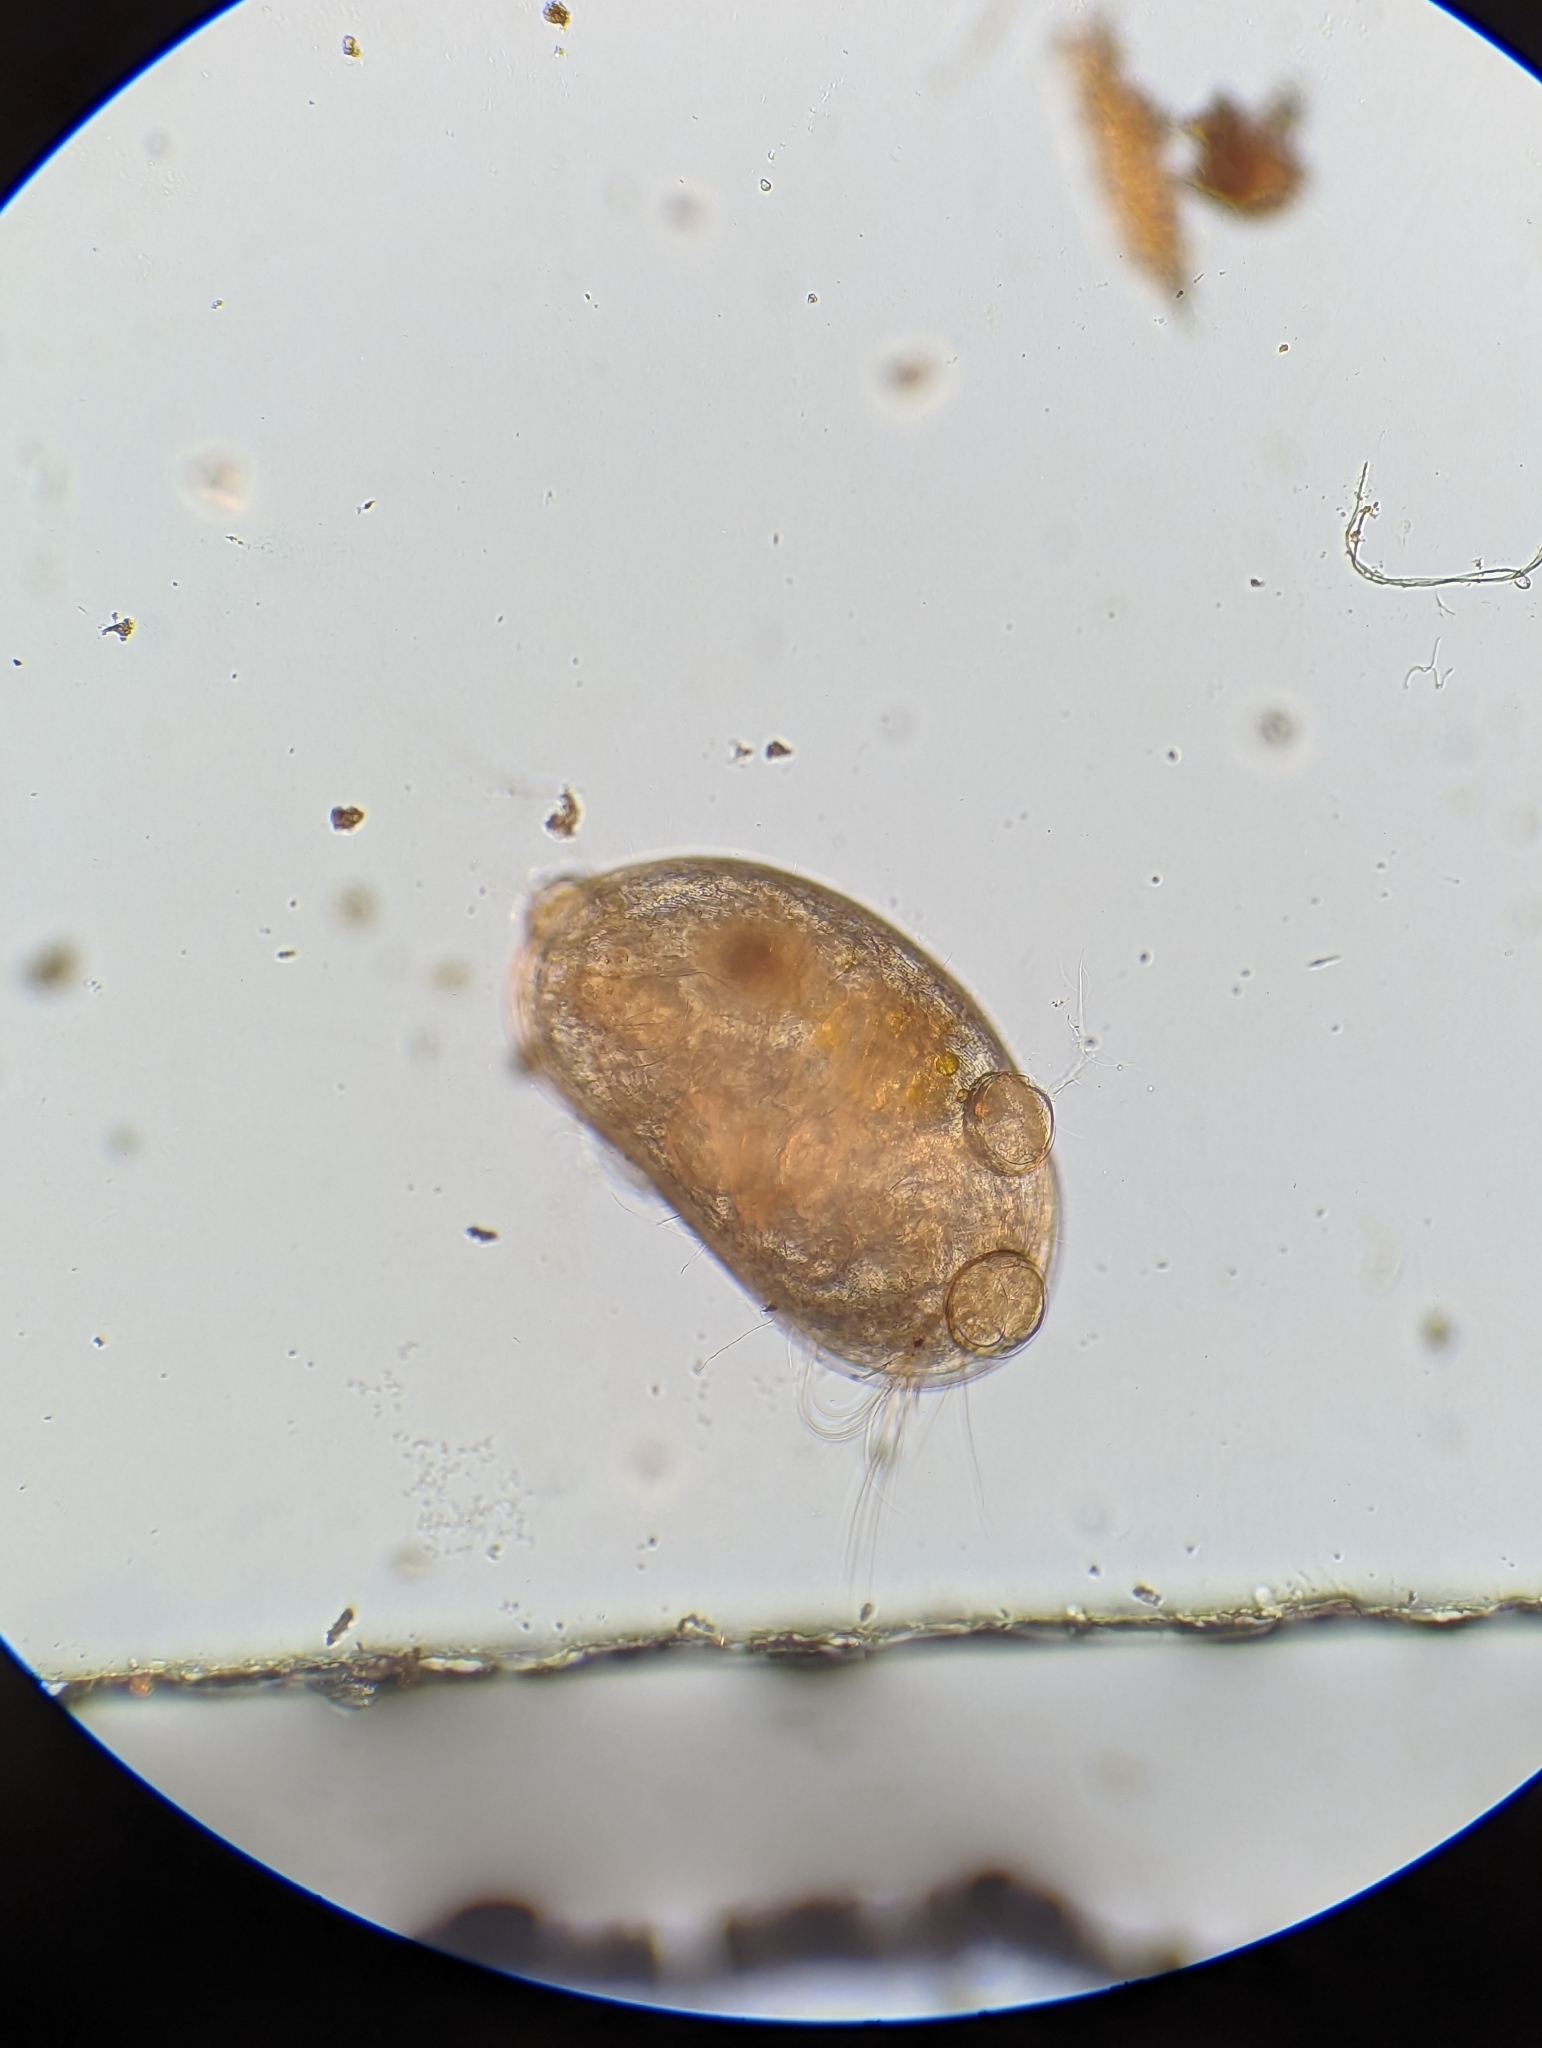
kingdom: Chromista
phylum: Ciliophora
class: Oligohymenophorea
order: Peritrichida
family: Lagenophryidae
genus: Lagenophrys
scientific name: Lagenophrys
